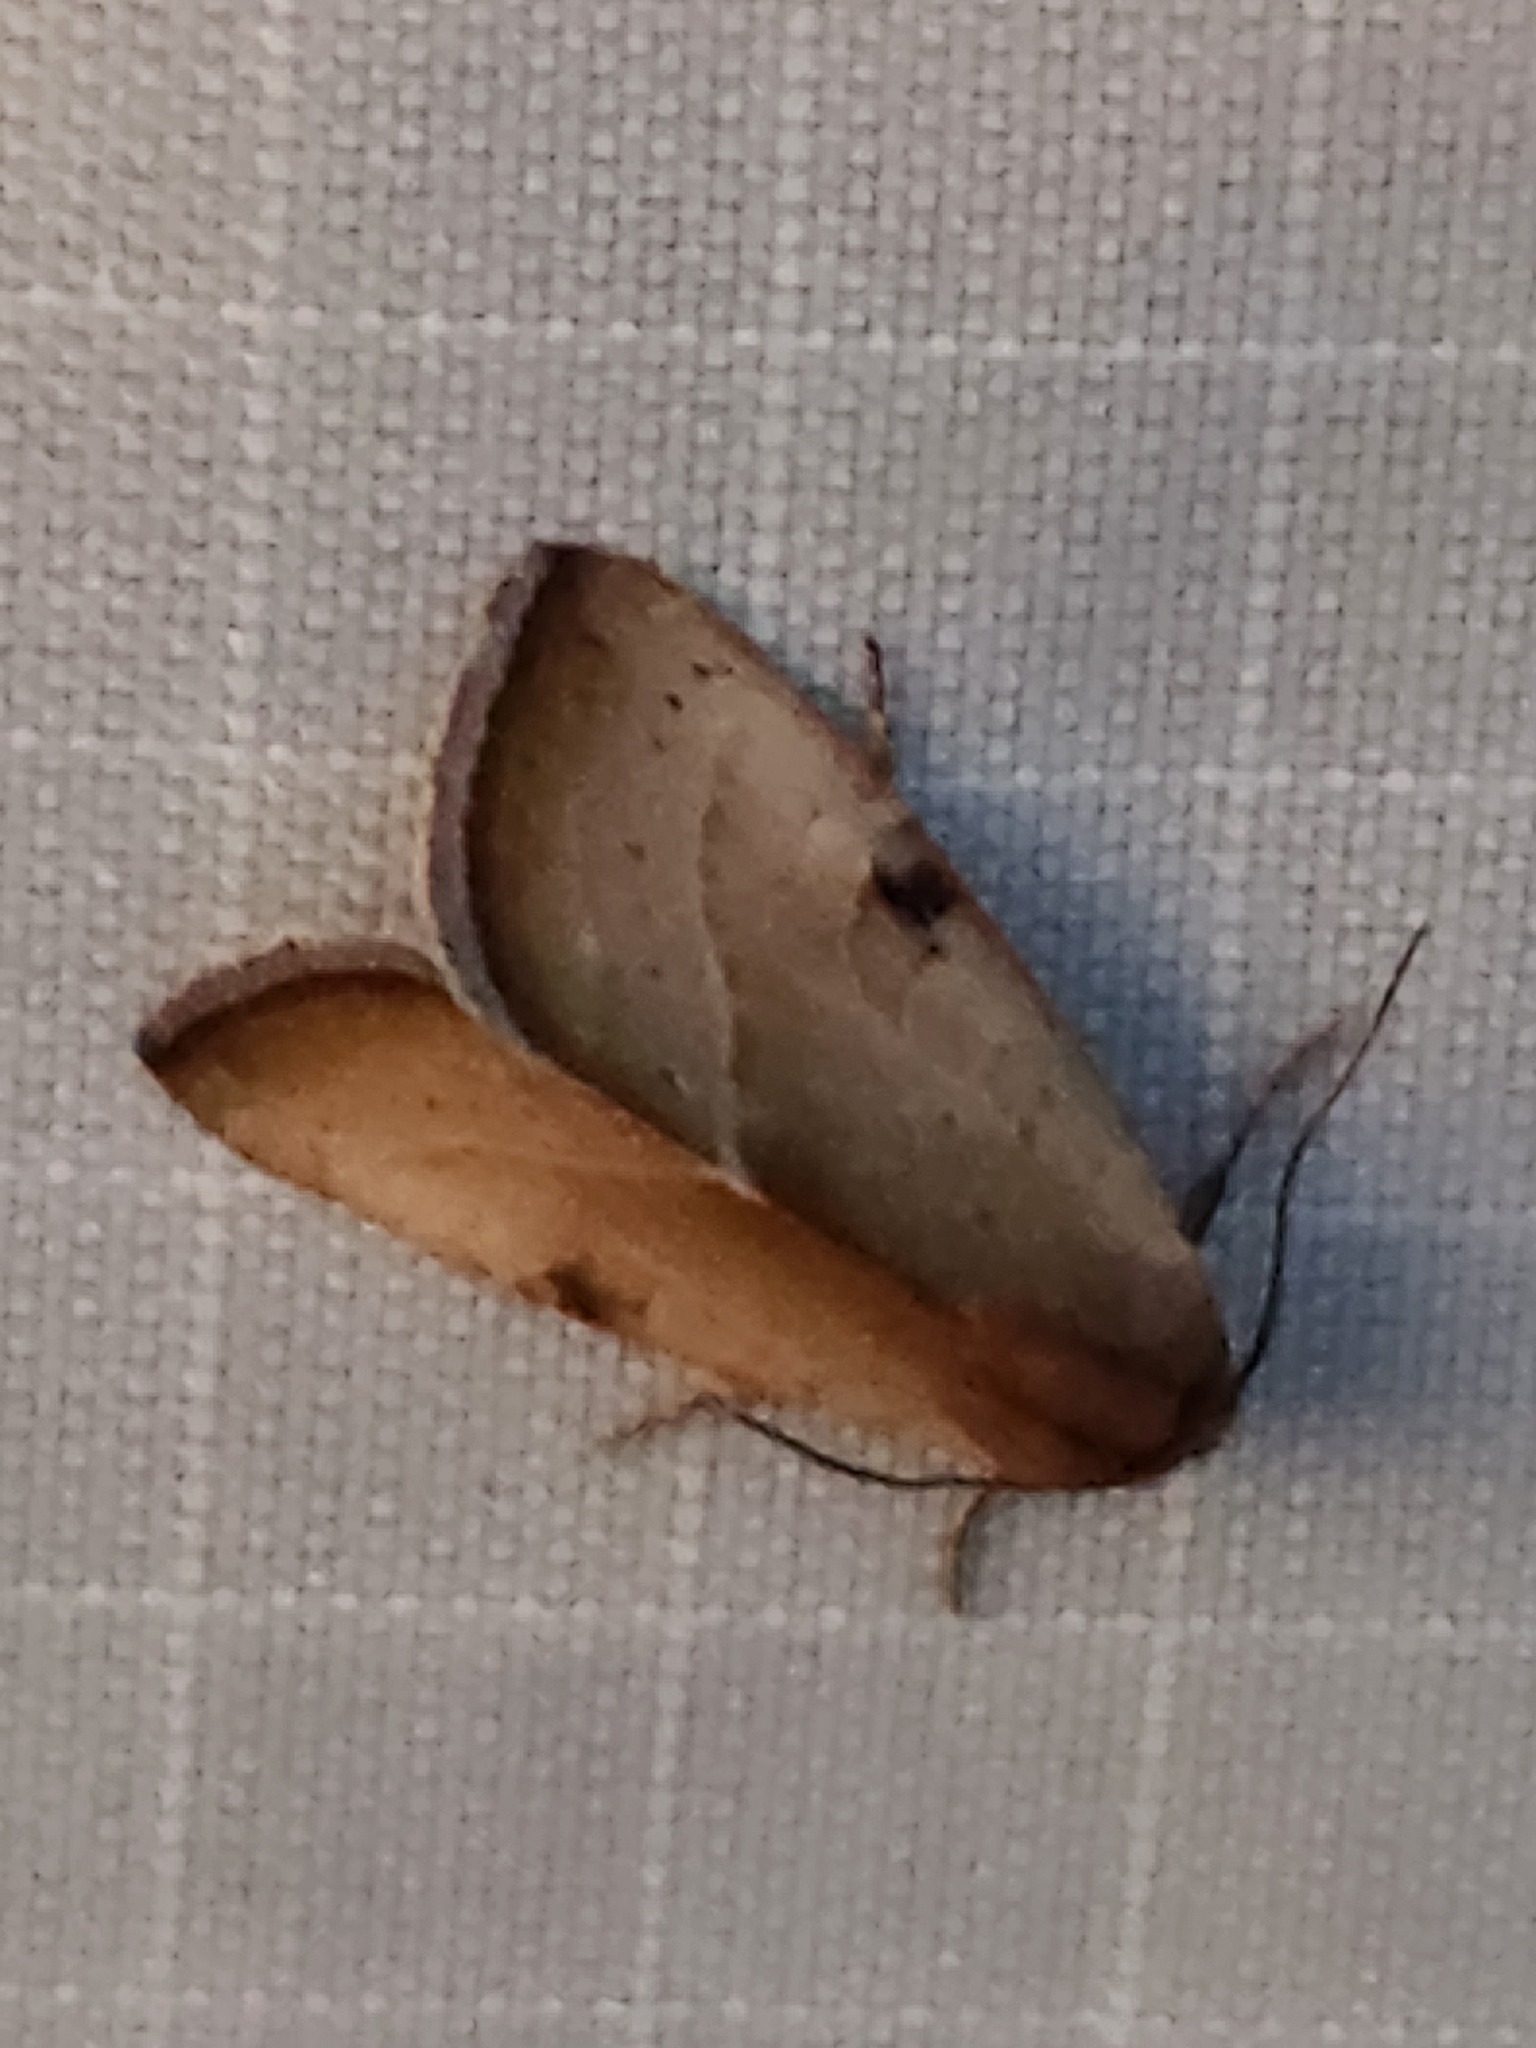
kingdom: Animalia
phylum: Arthropoda
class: Insecta
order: Lepidoptera
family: Noctuidae
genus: Galgula
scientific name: Galgula partita
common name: Wedgeling
